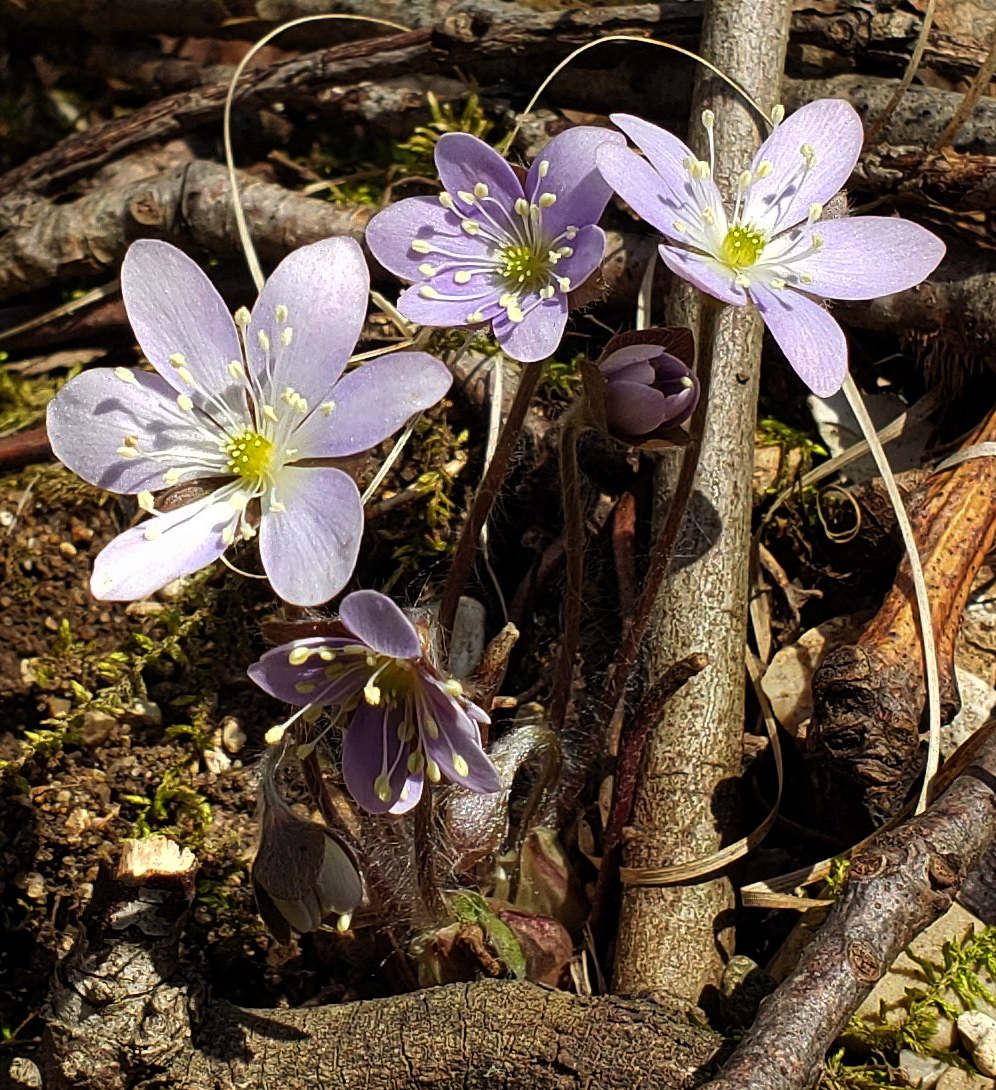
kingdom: Plantae
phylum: Tracheophyta
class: Magnoliopsida
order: Ranunculales
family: Ranunculaceae
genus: Hepatica
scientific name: Hepatica americana
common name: American hepatica
